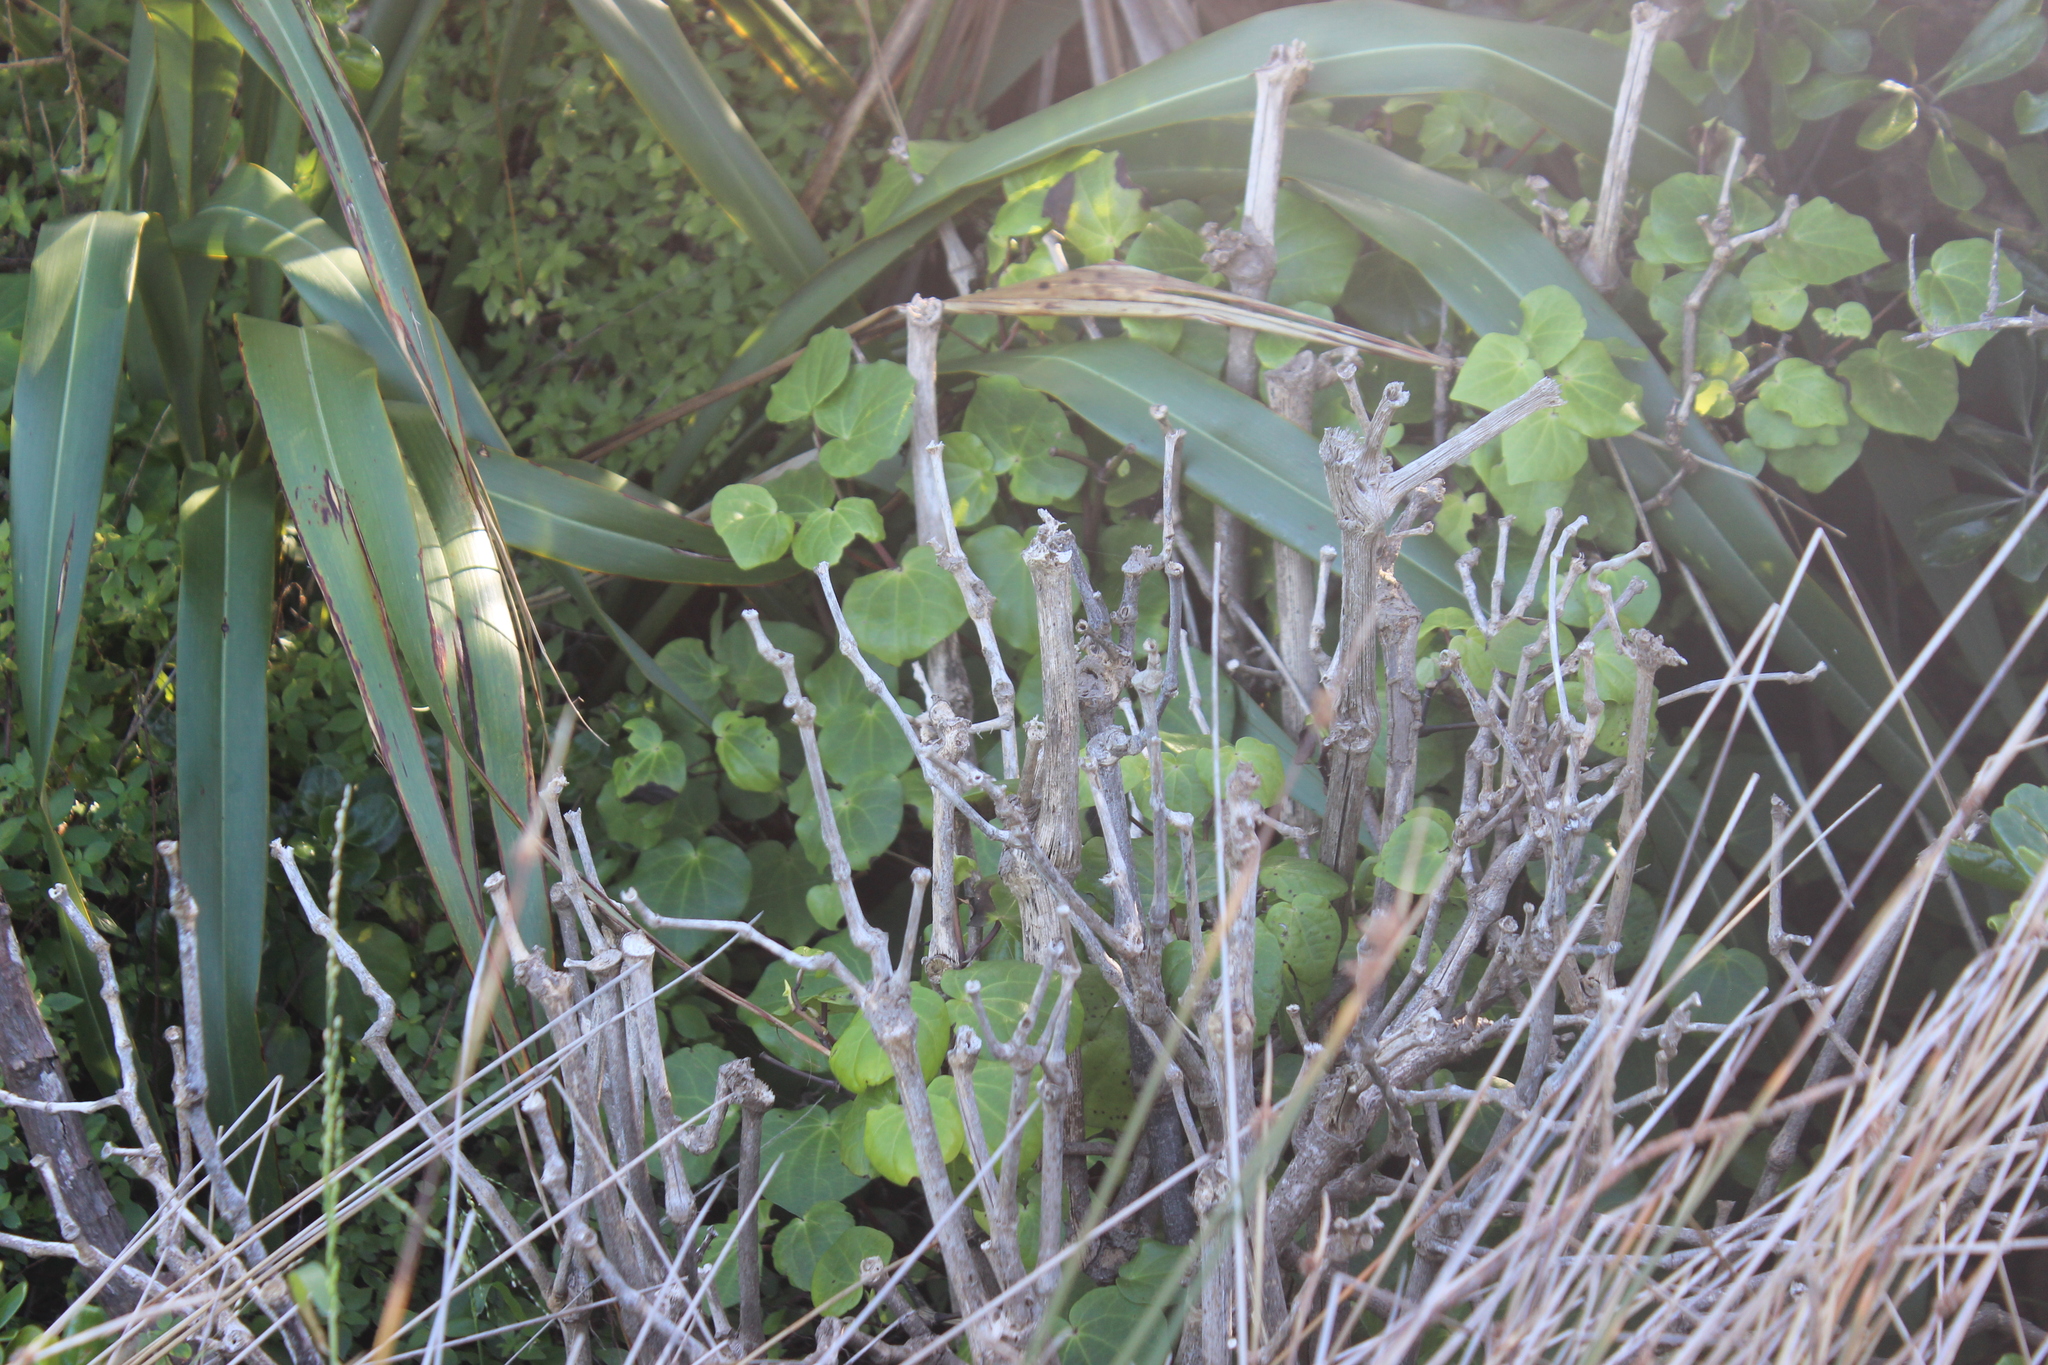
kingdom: Plantae
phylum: Tracheophyta
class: Magnoliopsida
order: Piperales
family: Piperaceae
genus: Macropiper
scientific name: Macropiper excelsum
